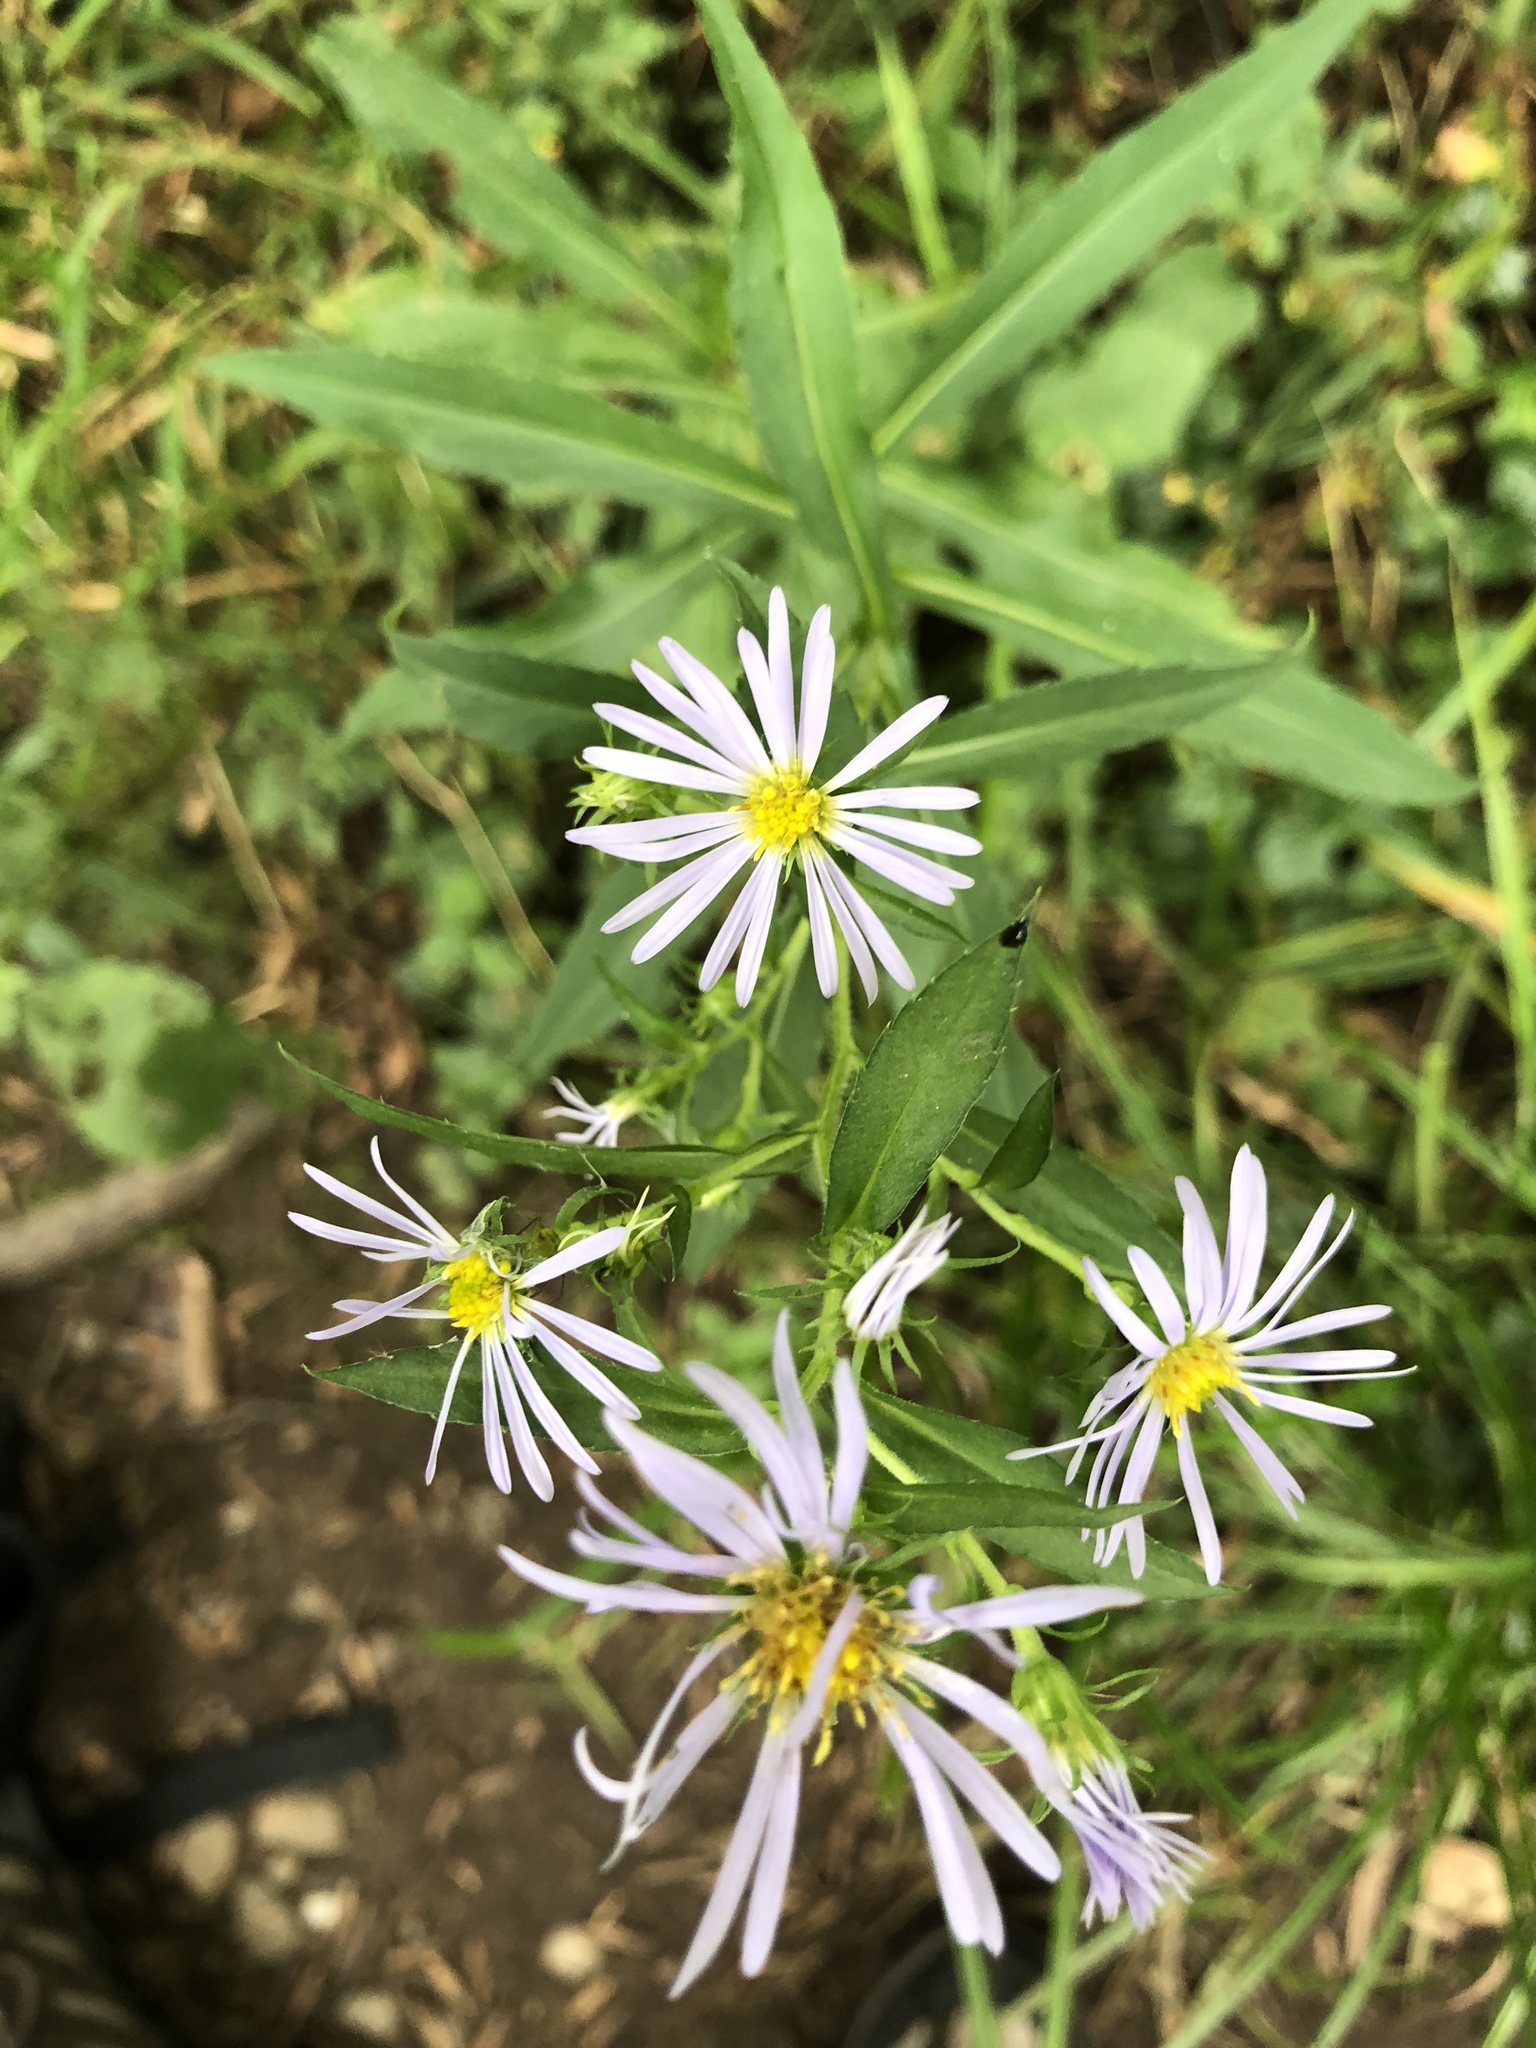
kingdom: Plantae
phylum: Tracheophyta
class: Magnoliopsida
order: Asterales
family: Asteraceae
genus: Symphyotrichum
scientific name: Symphyotrichum puniceum
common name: Bog aster
